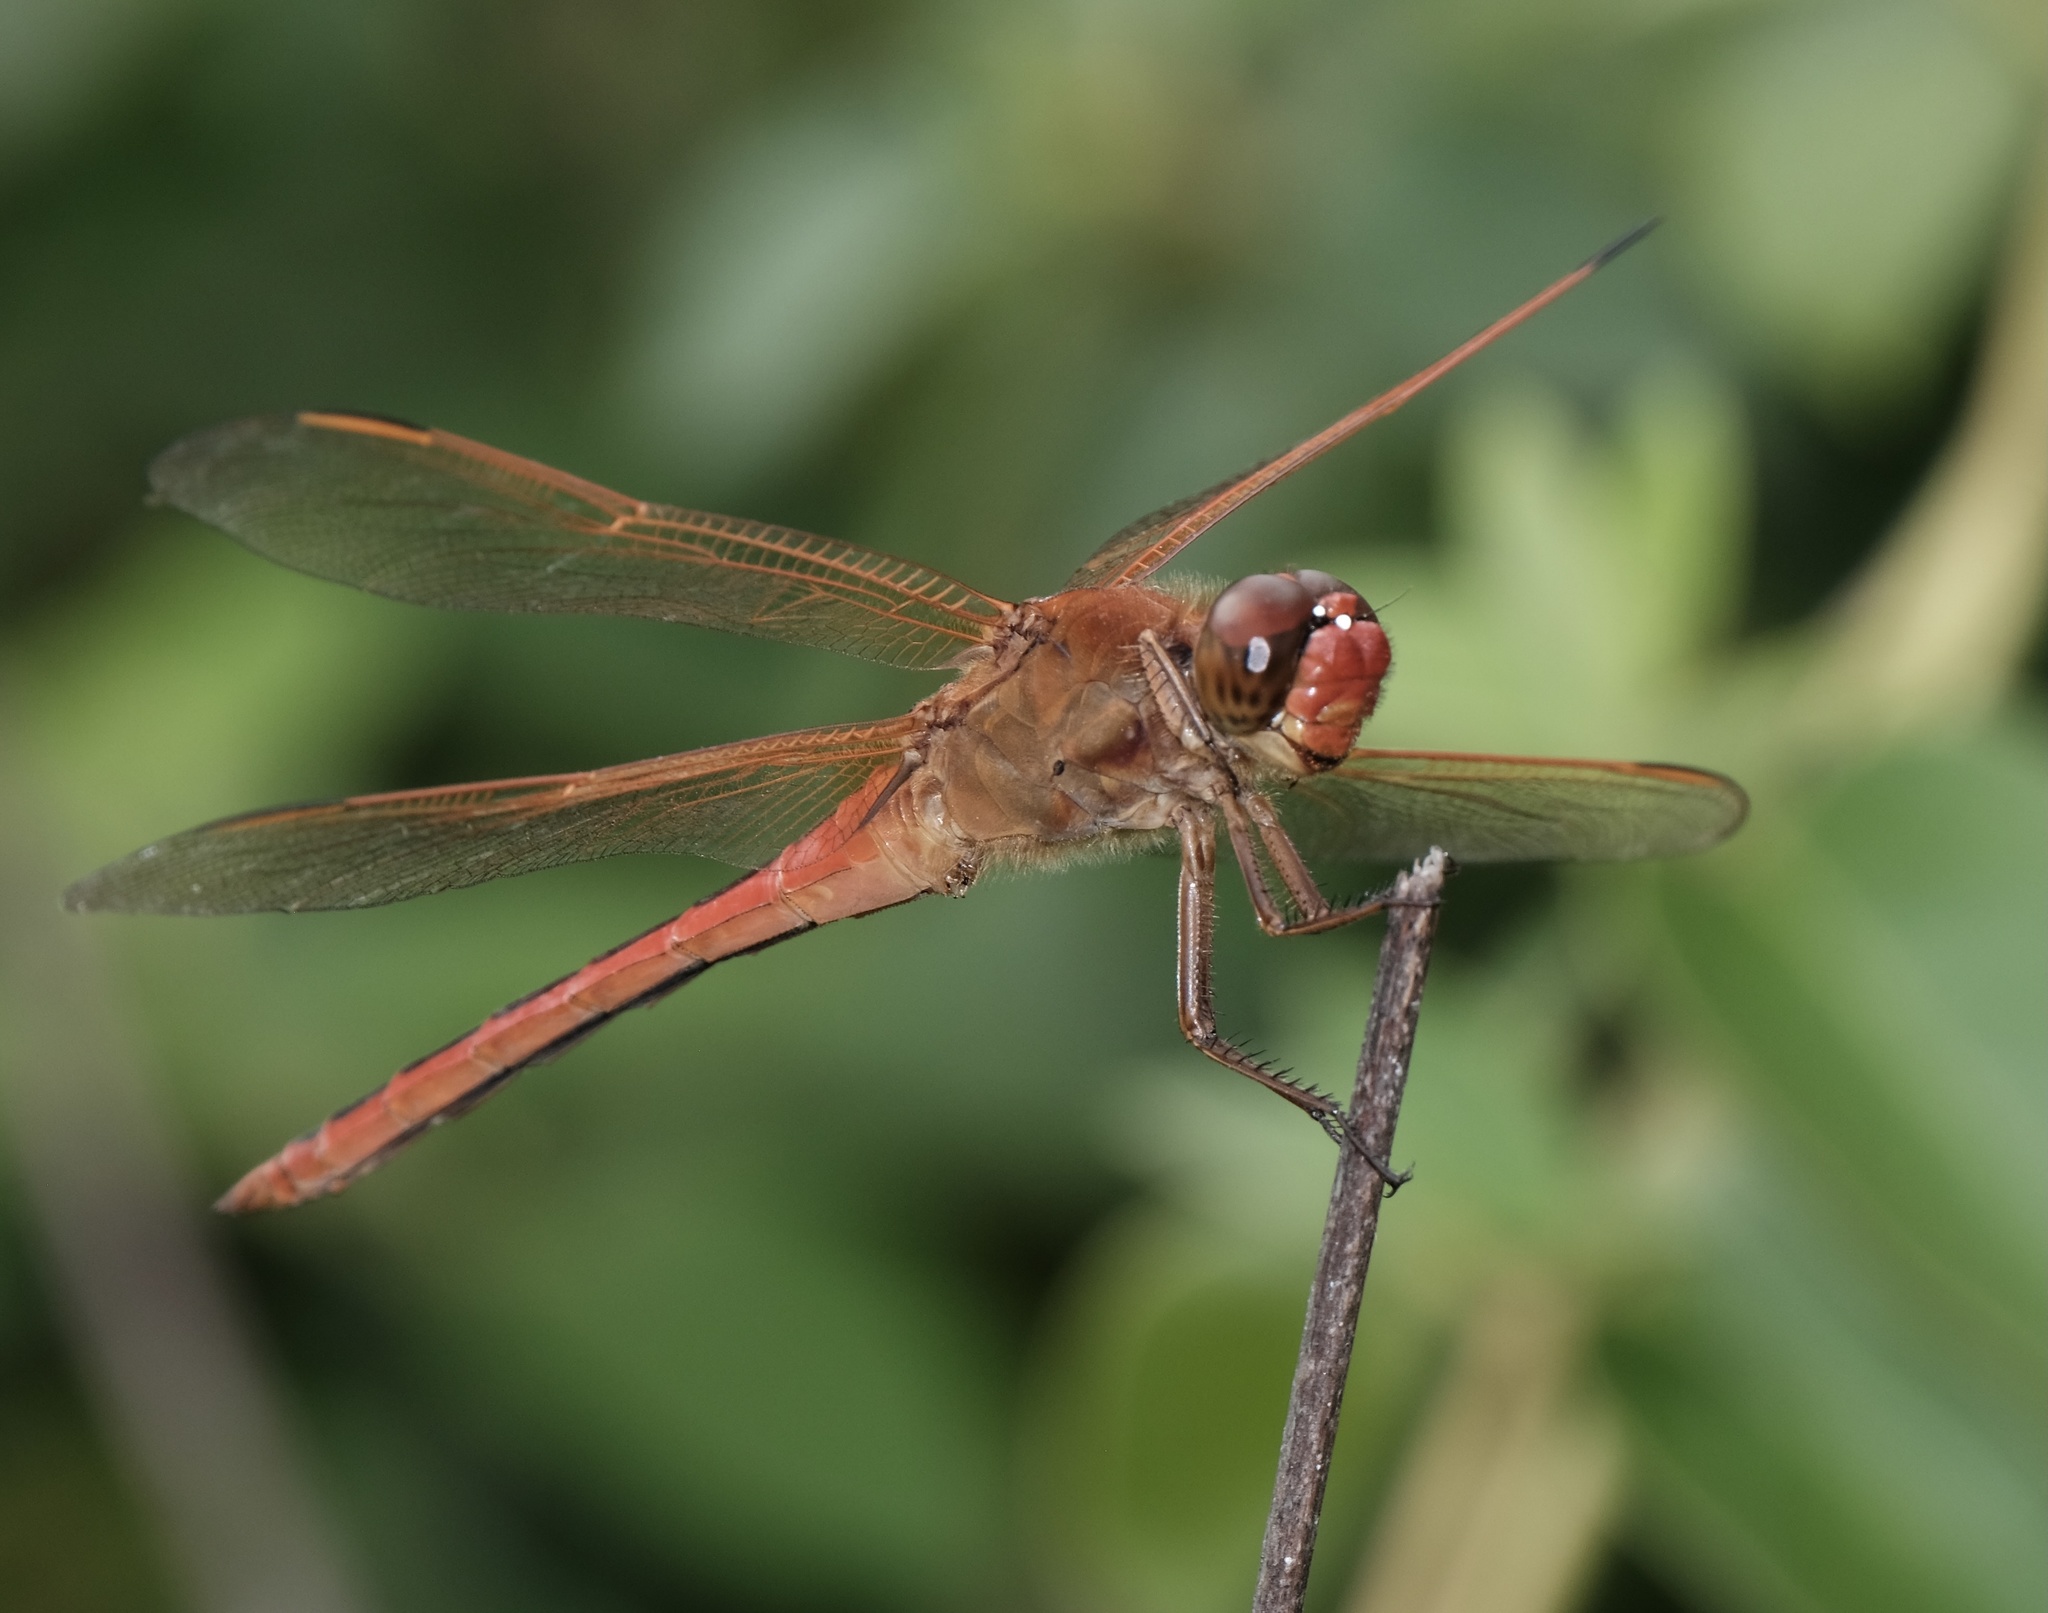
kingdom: Animalia
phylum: Arthropoda
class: Insecta
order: Odonata
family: Libellulidae
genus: Libellula
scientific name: Libellula needhami
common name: Needham's skimmer
